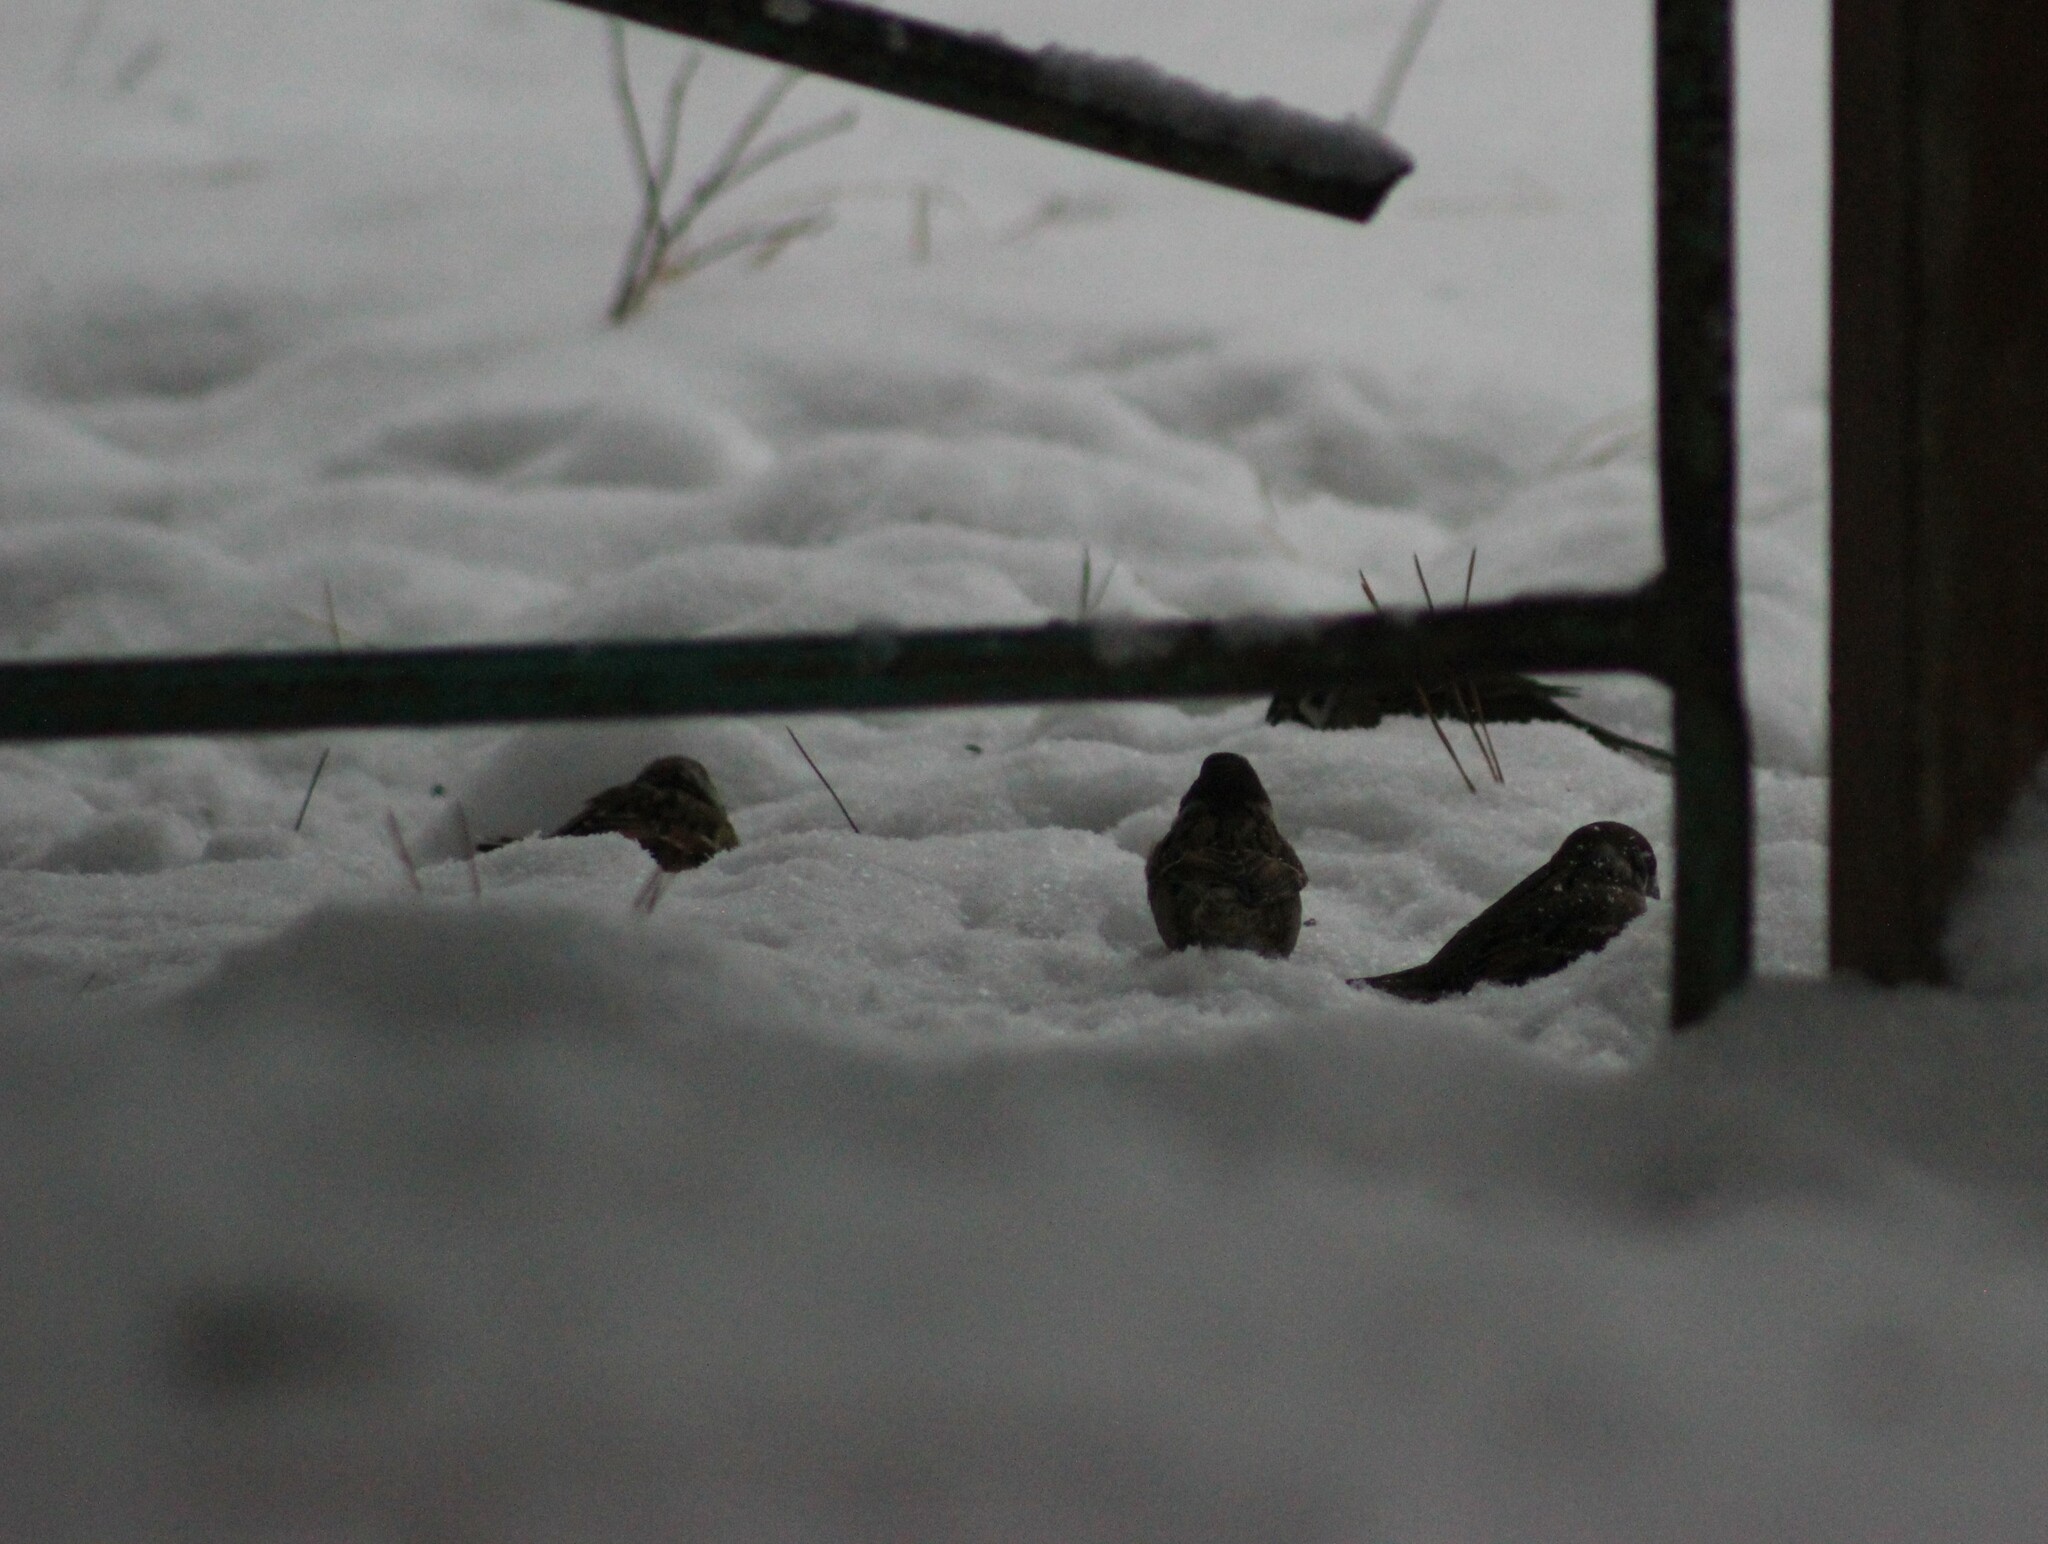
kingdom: Animalia
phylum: Chordata
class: Aves
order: Passeriformes
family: Passeridae
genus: Passer
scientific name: Passer montanus
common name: Eurasian tree sparrow
